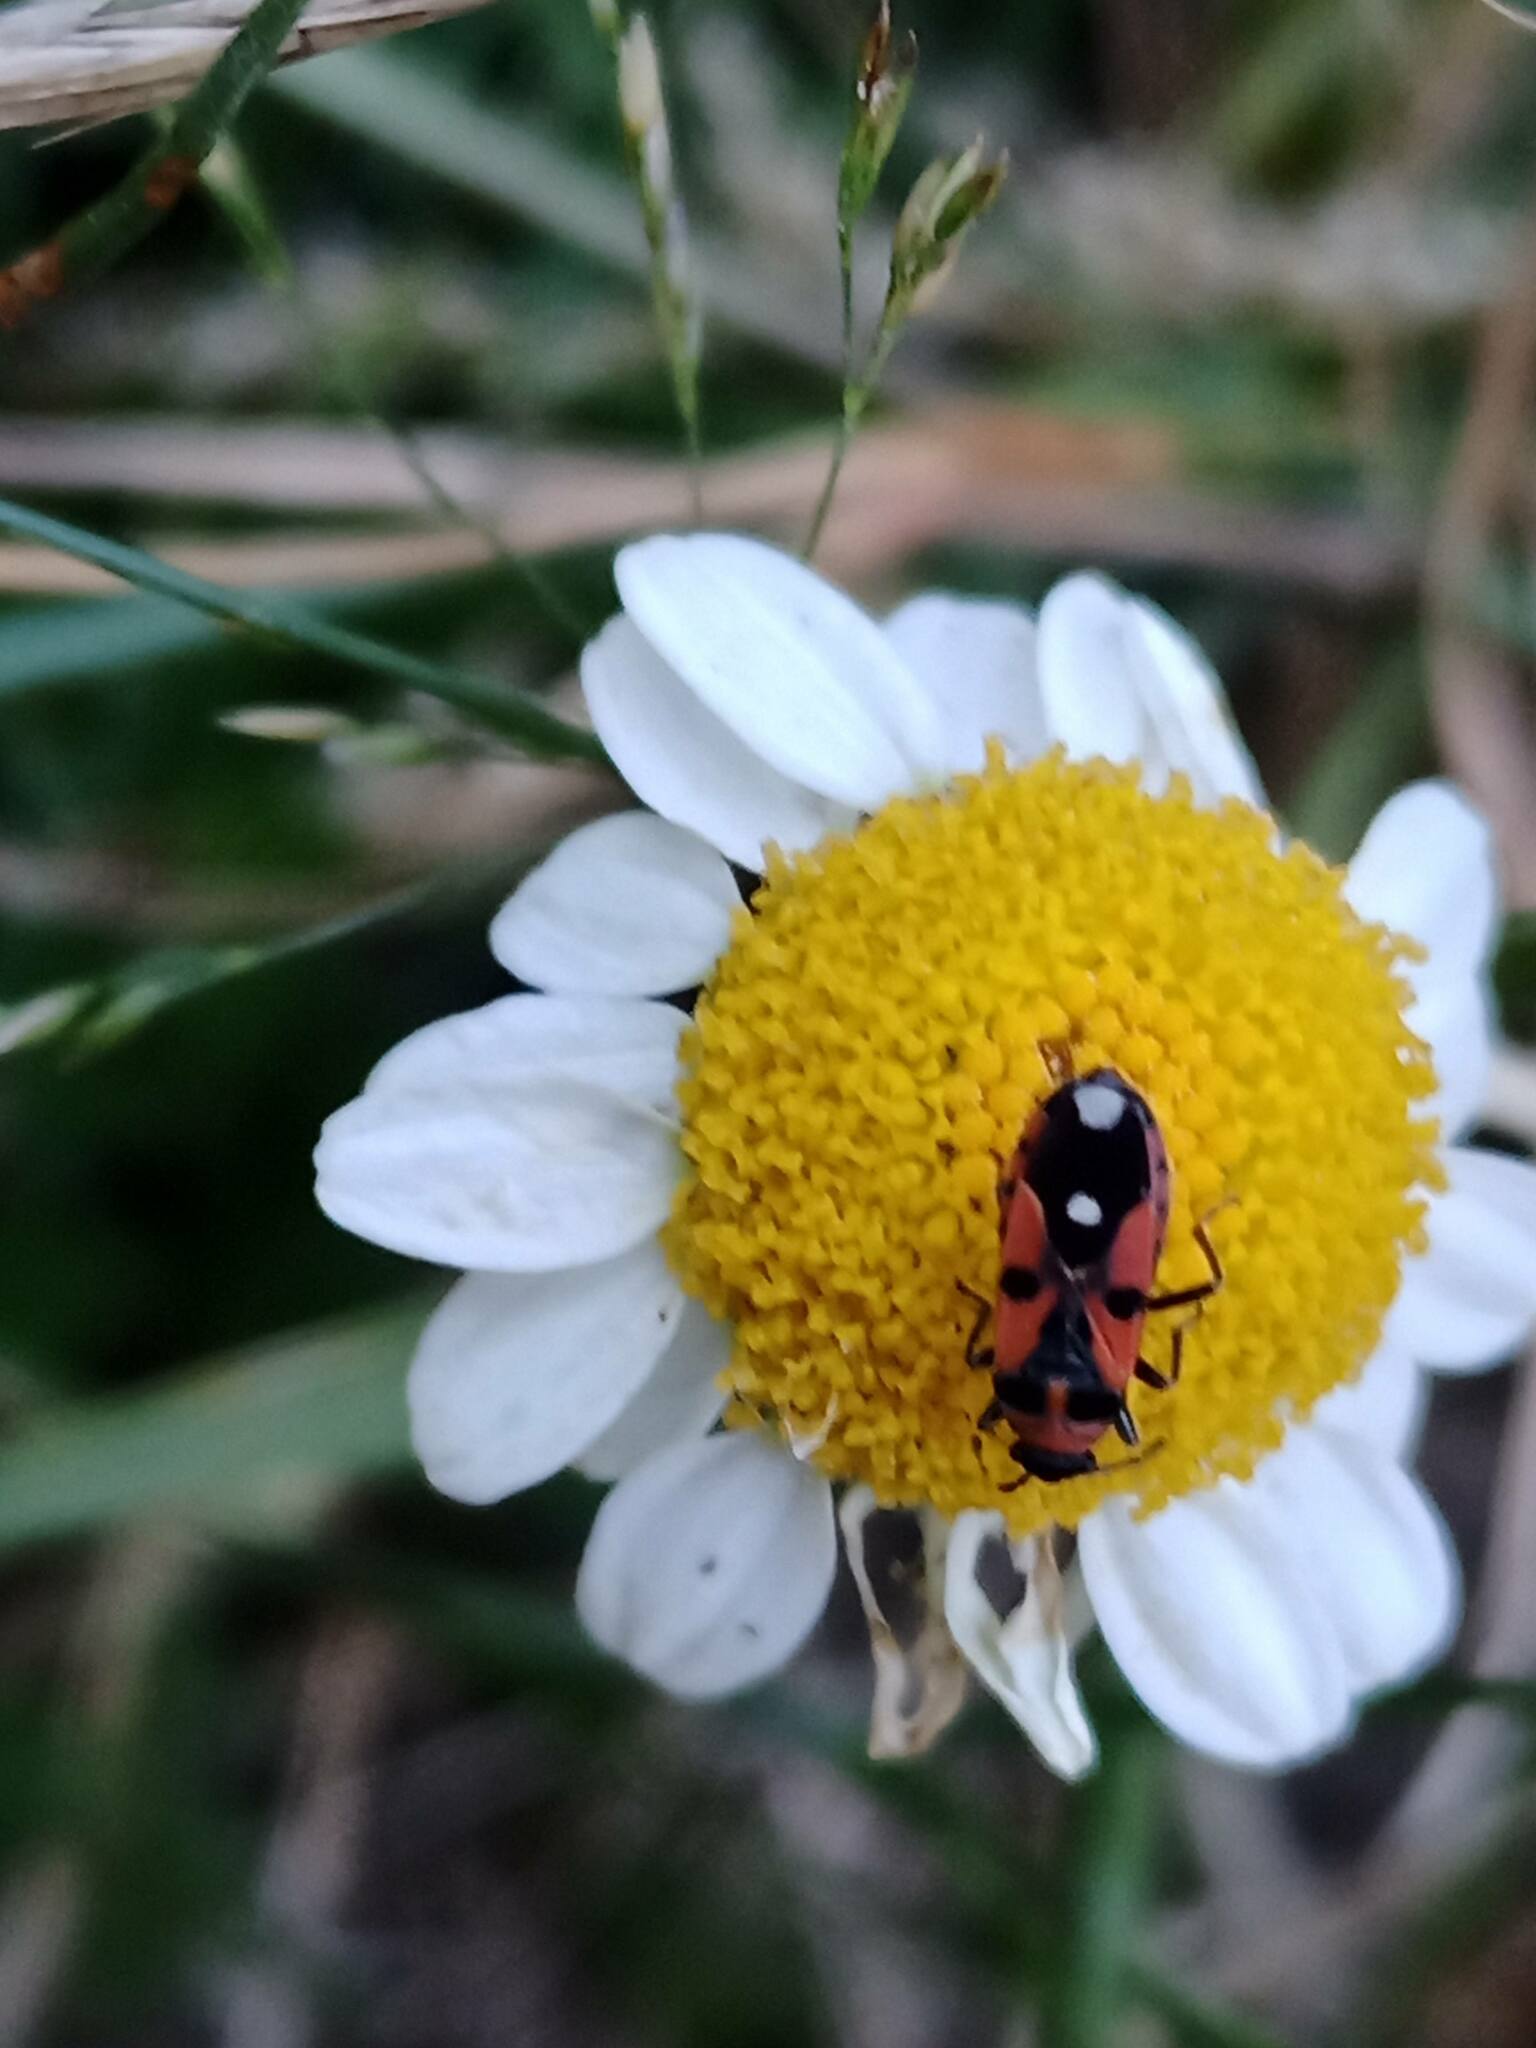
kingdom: Animalia
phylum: Arthropoda
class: Insecta
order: Hemiptera
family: Lygaeidae
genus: Horvathiolus
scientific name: Horvathiolus superbus
